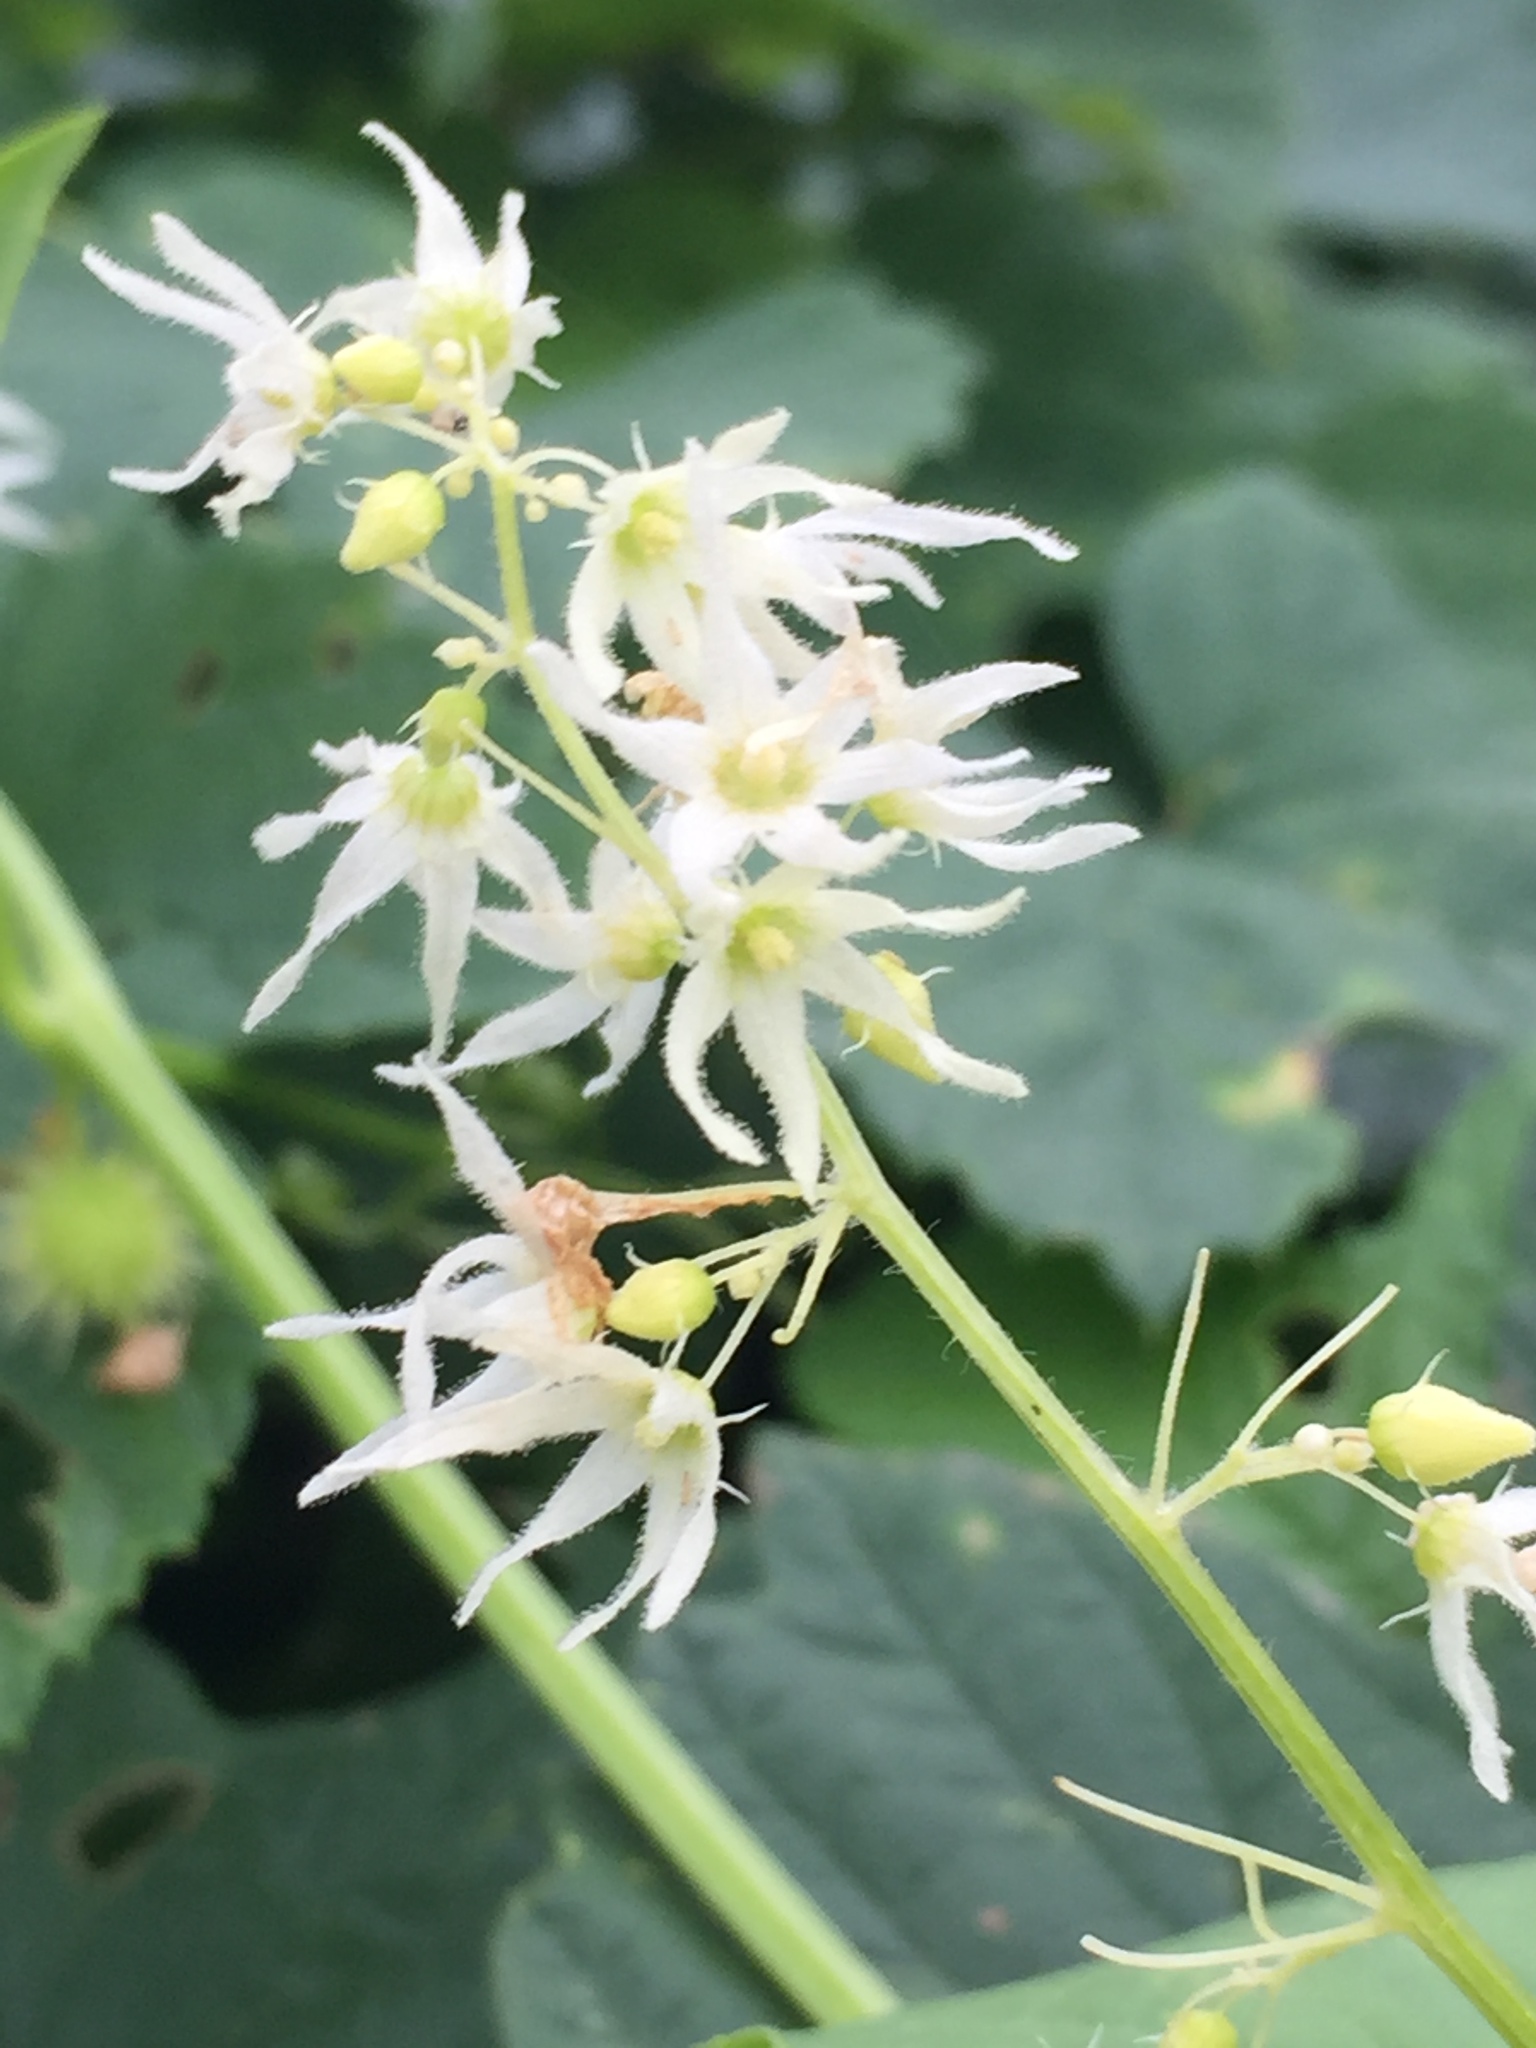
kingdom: Plantae
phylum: Tracheophyta
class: Magnoliopsida
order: Cucurbitales
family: Cucurbitaceae
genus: Echinocystis
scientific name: Echinocystis lobata
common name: Wild cucumber
